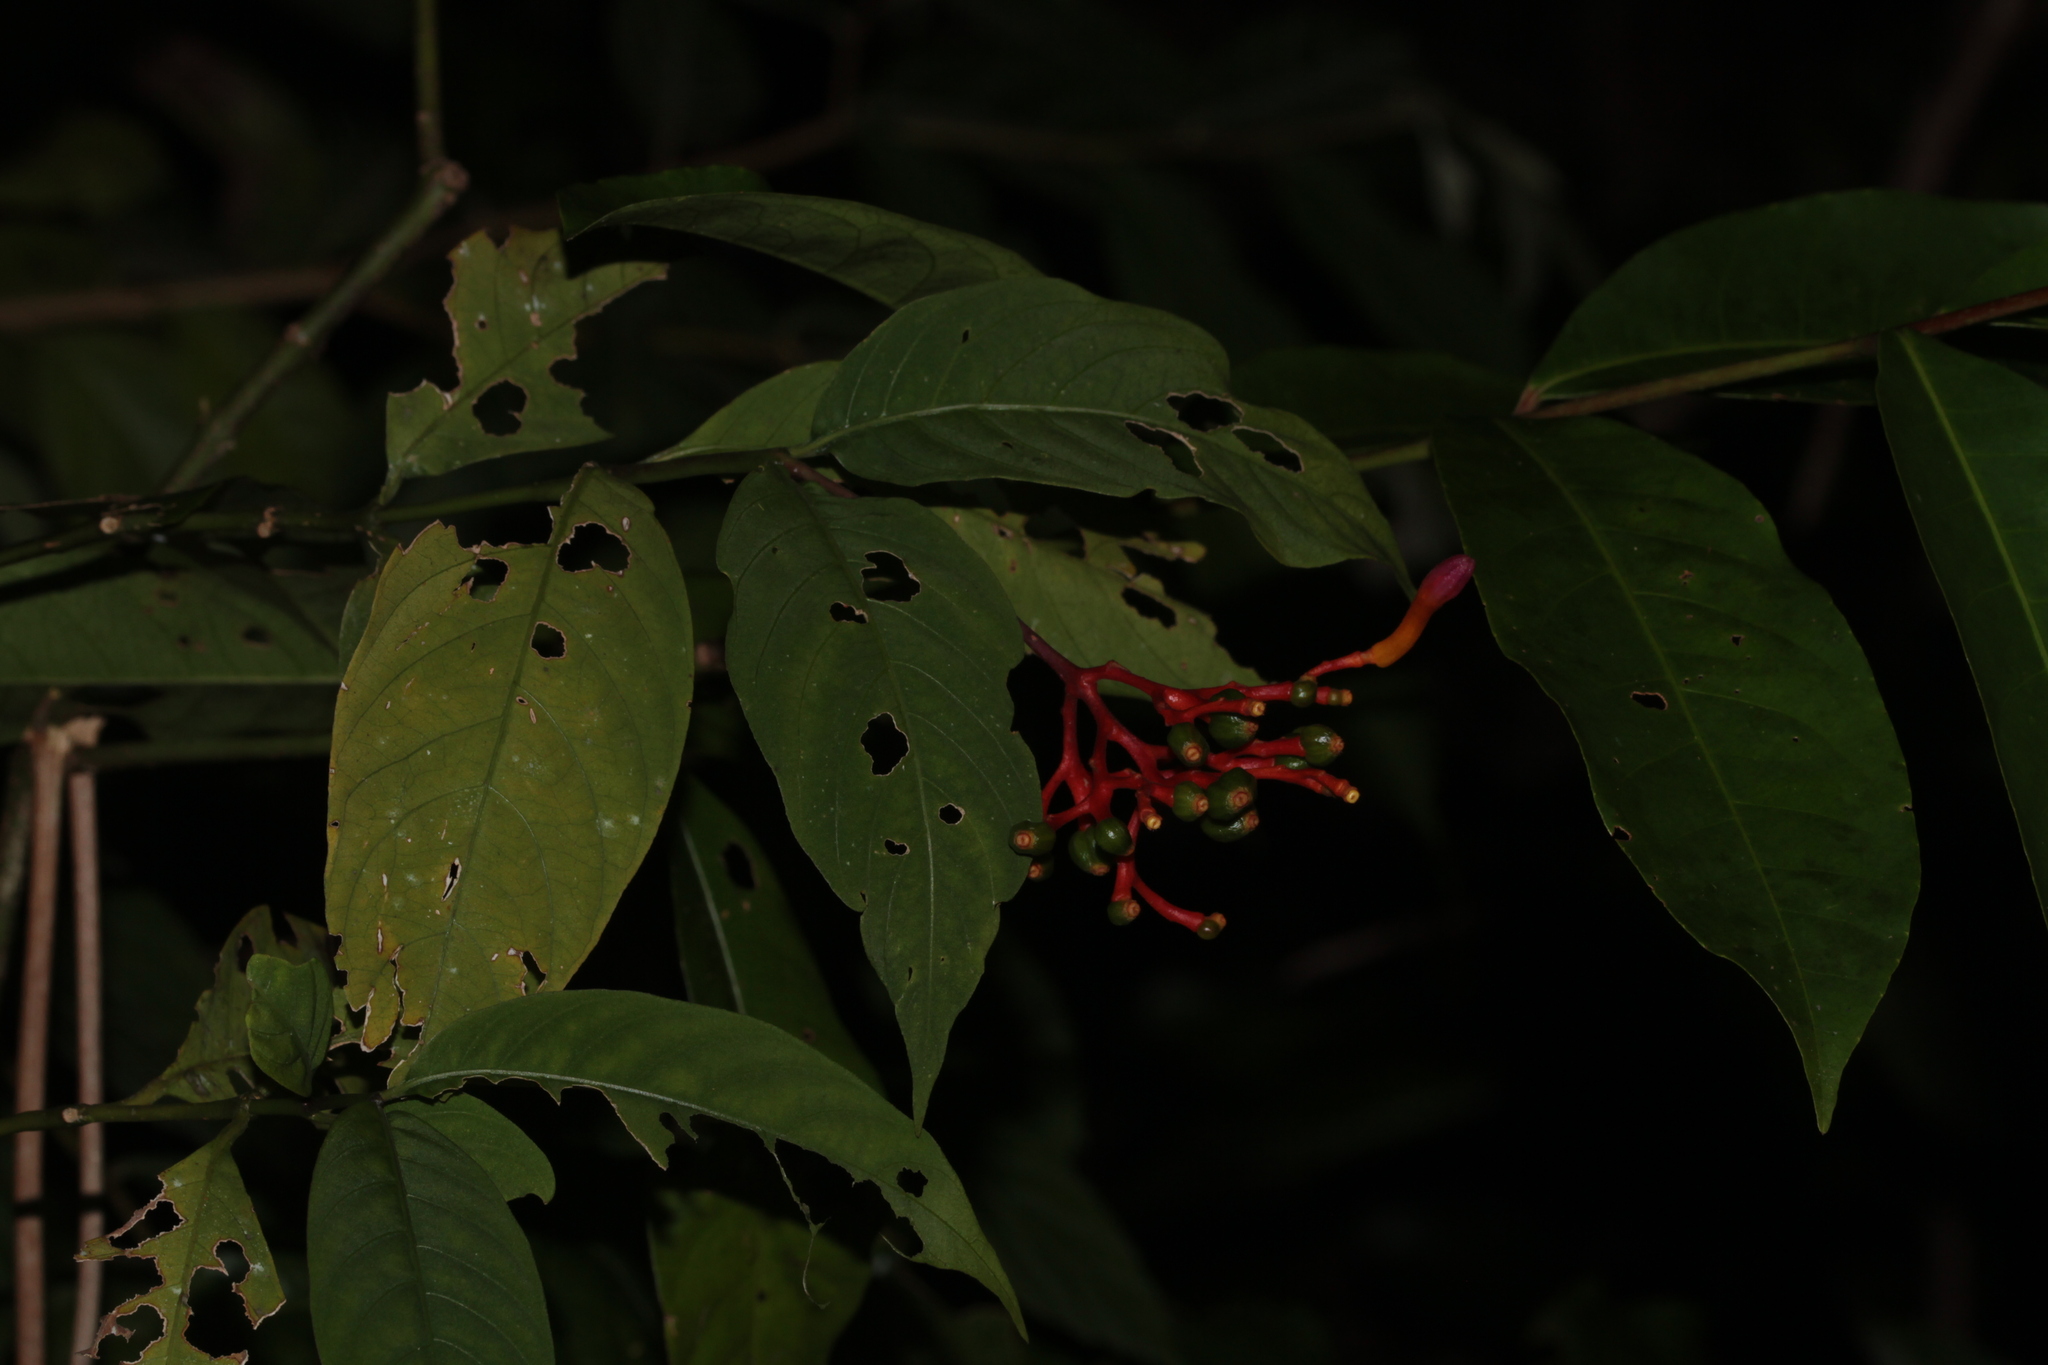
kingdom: Plantae
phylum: Tracheophyta
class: Magnoliopsida
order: Gentianales
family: Rubiaceae
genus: Palicourea
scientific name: Palicourea longiflora
